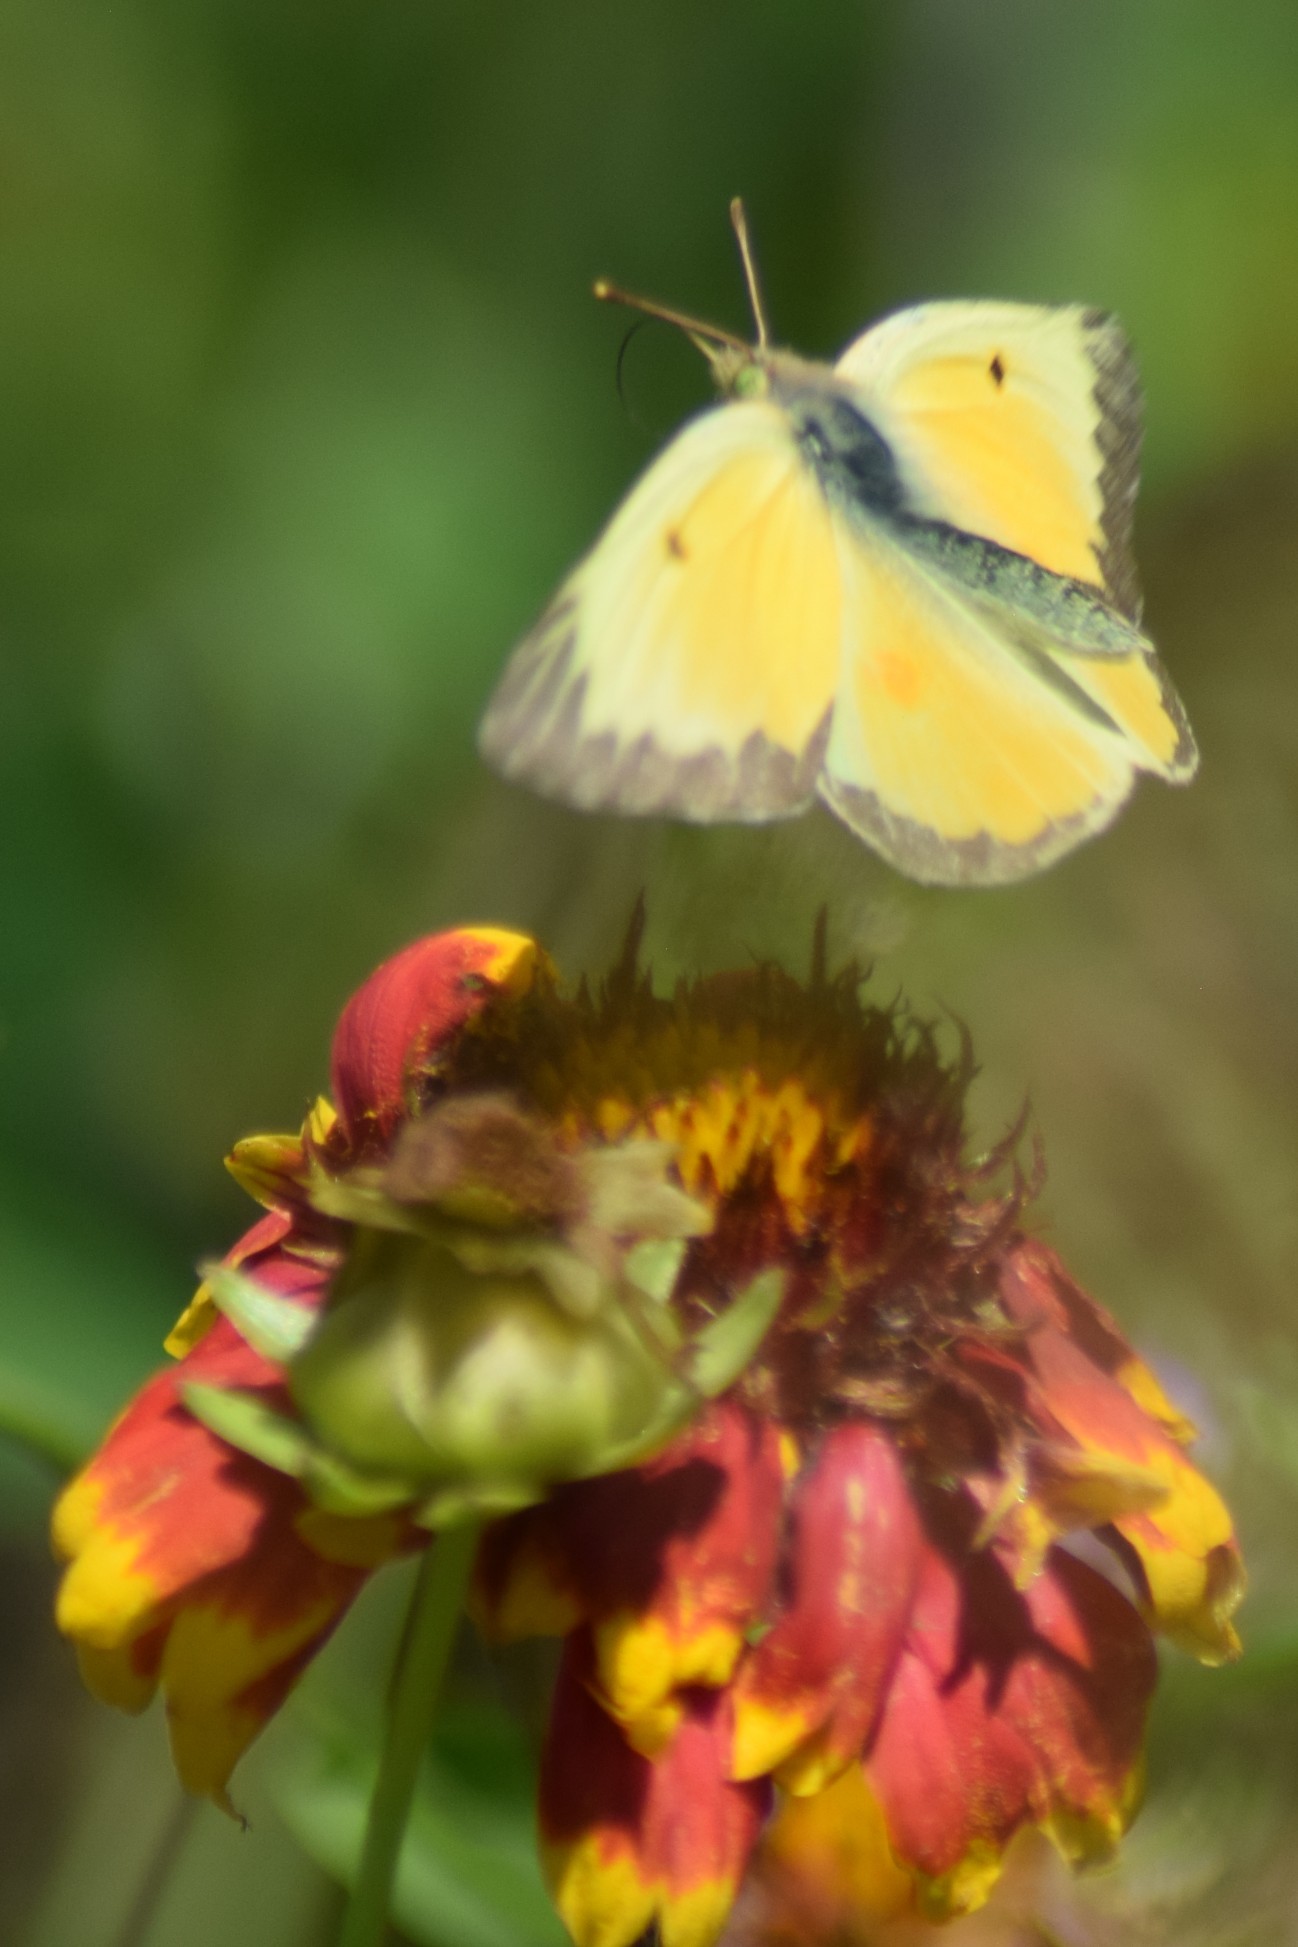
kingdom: Animalia
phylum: Arthropoda
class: Insecta
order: Lepidoptera
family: Pieridae
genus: Colias
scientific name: Colias eurytheme
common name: Alfalfa butterfly
